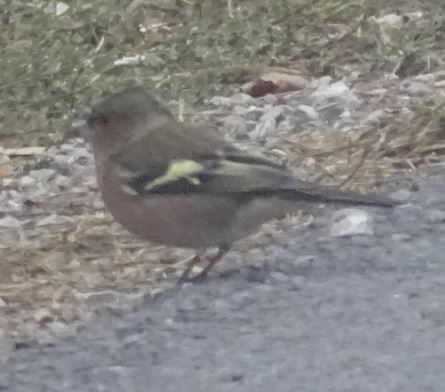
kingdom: Animalia
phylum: Chordata
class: Aves
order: Passeriformes
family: Fringillidae
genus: Fringilla
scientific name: Fringilla coelebs
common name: Common chaffinch
